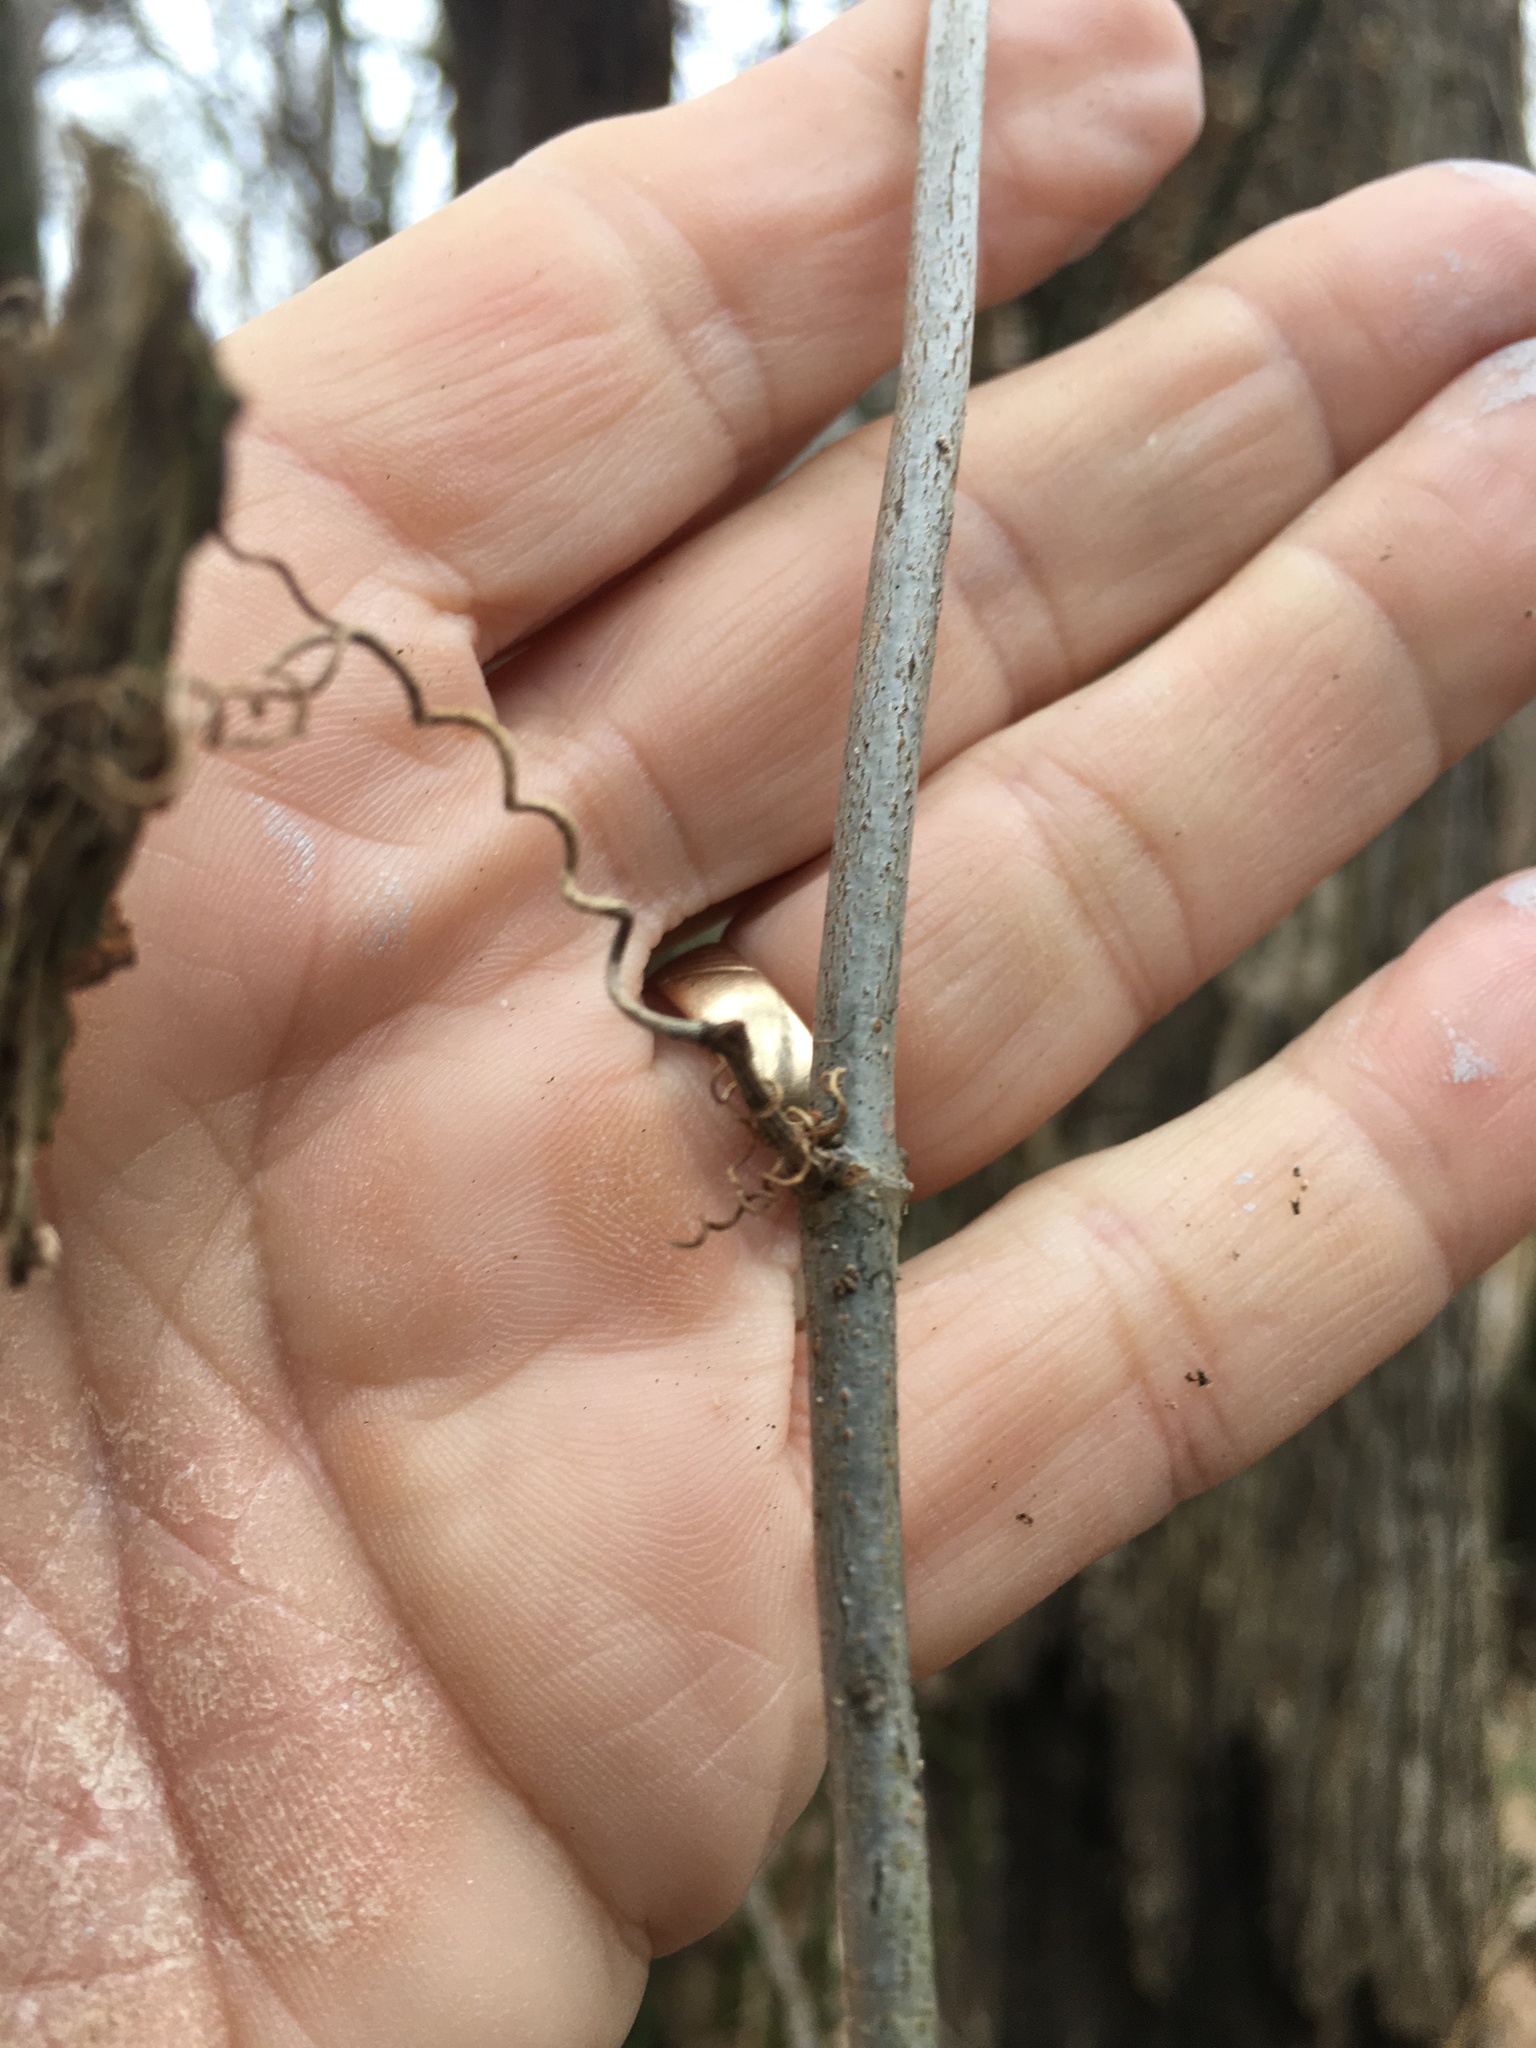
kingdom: Plantae
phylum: Tracheophyta
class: Magnoliopsida
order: Lamiales
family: Bignoniaceae
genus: Bignonia
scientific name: Bignonia capreolata
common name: Crossvine
